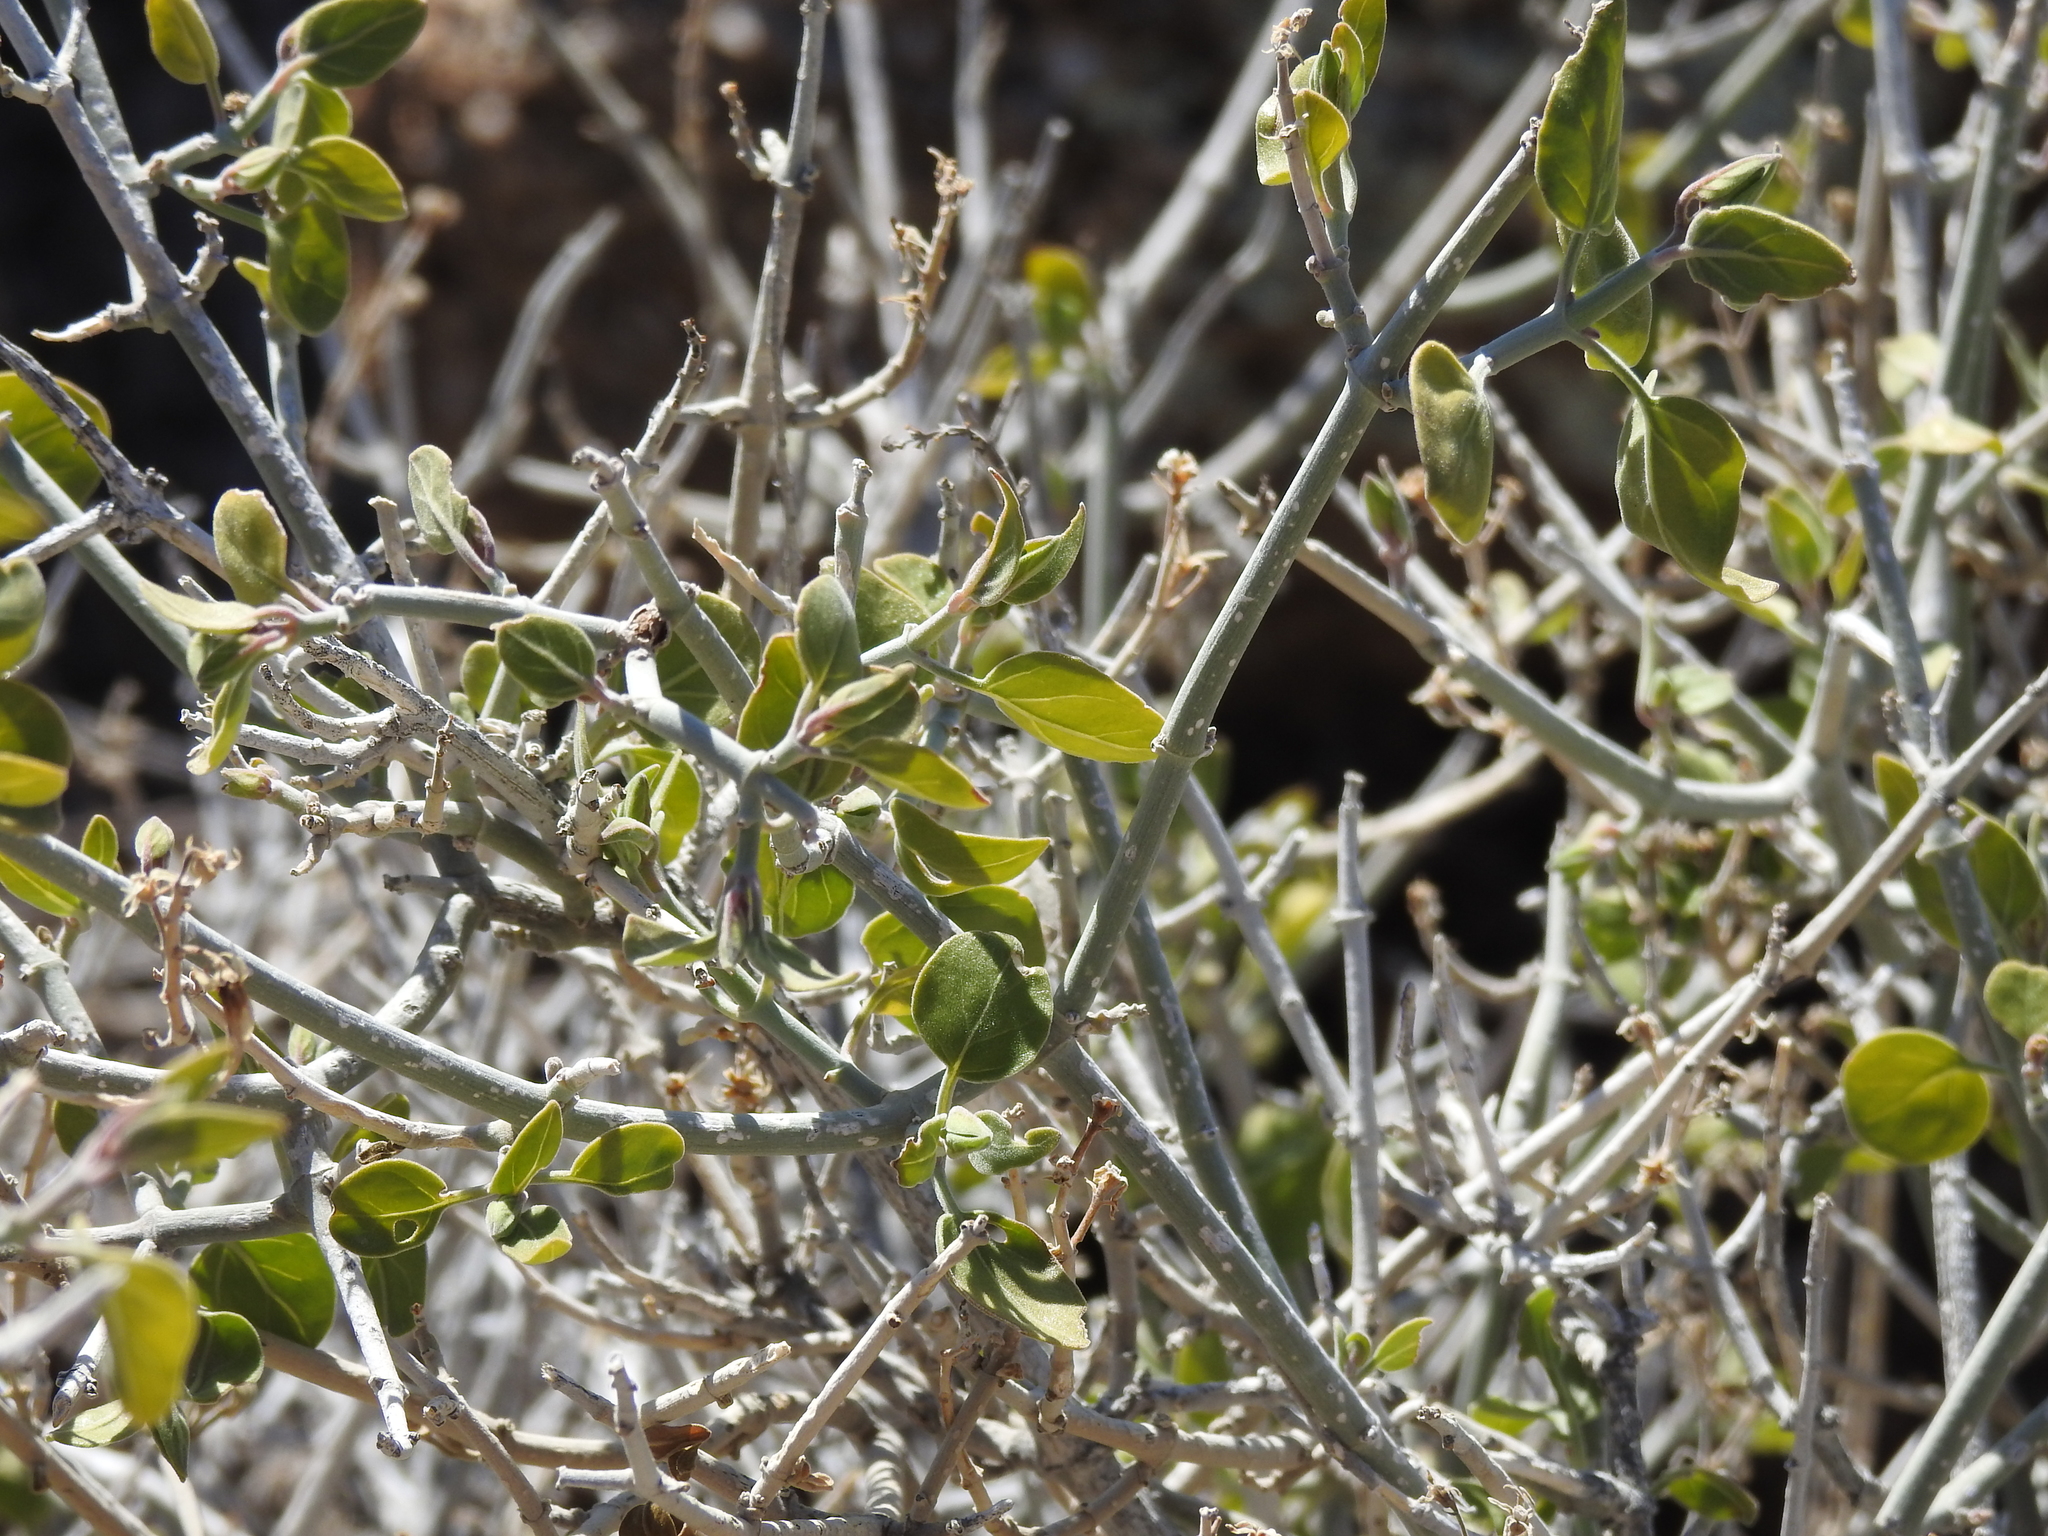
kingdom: Plantae
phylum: Tracheophyta
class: Magnoliopsida
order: Lamiales
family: Acanthaceae
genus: Justicia
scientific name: Justicia californica
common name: Chuparosa-honeysuckle
